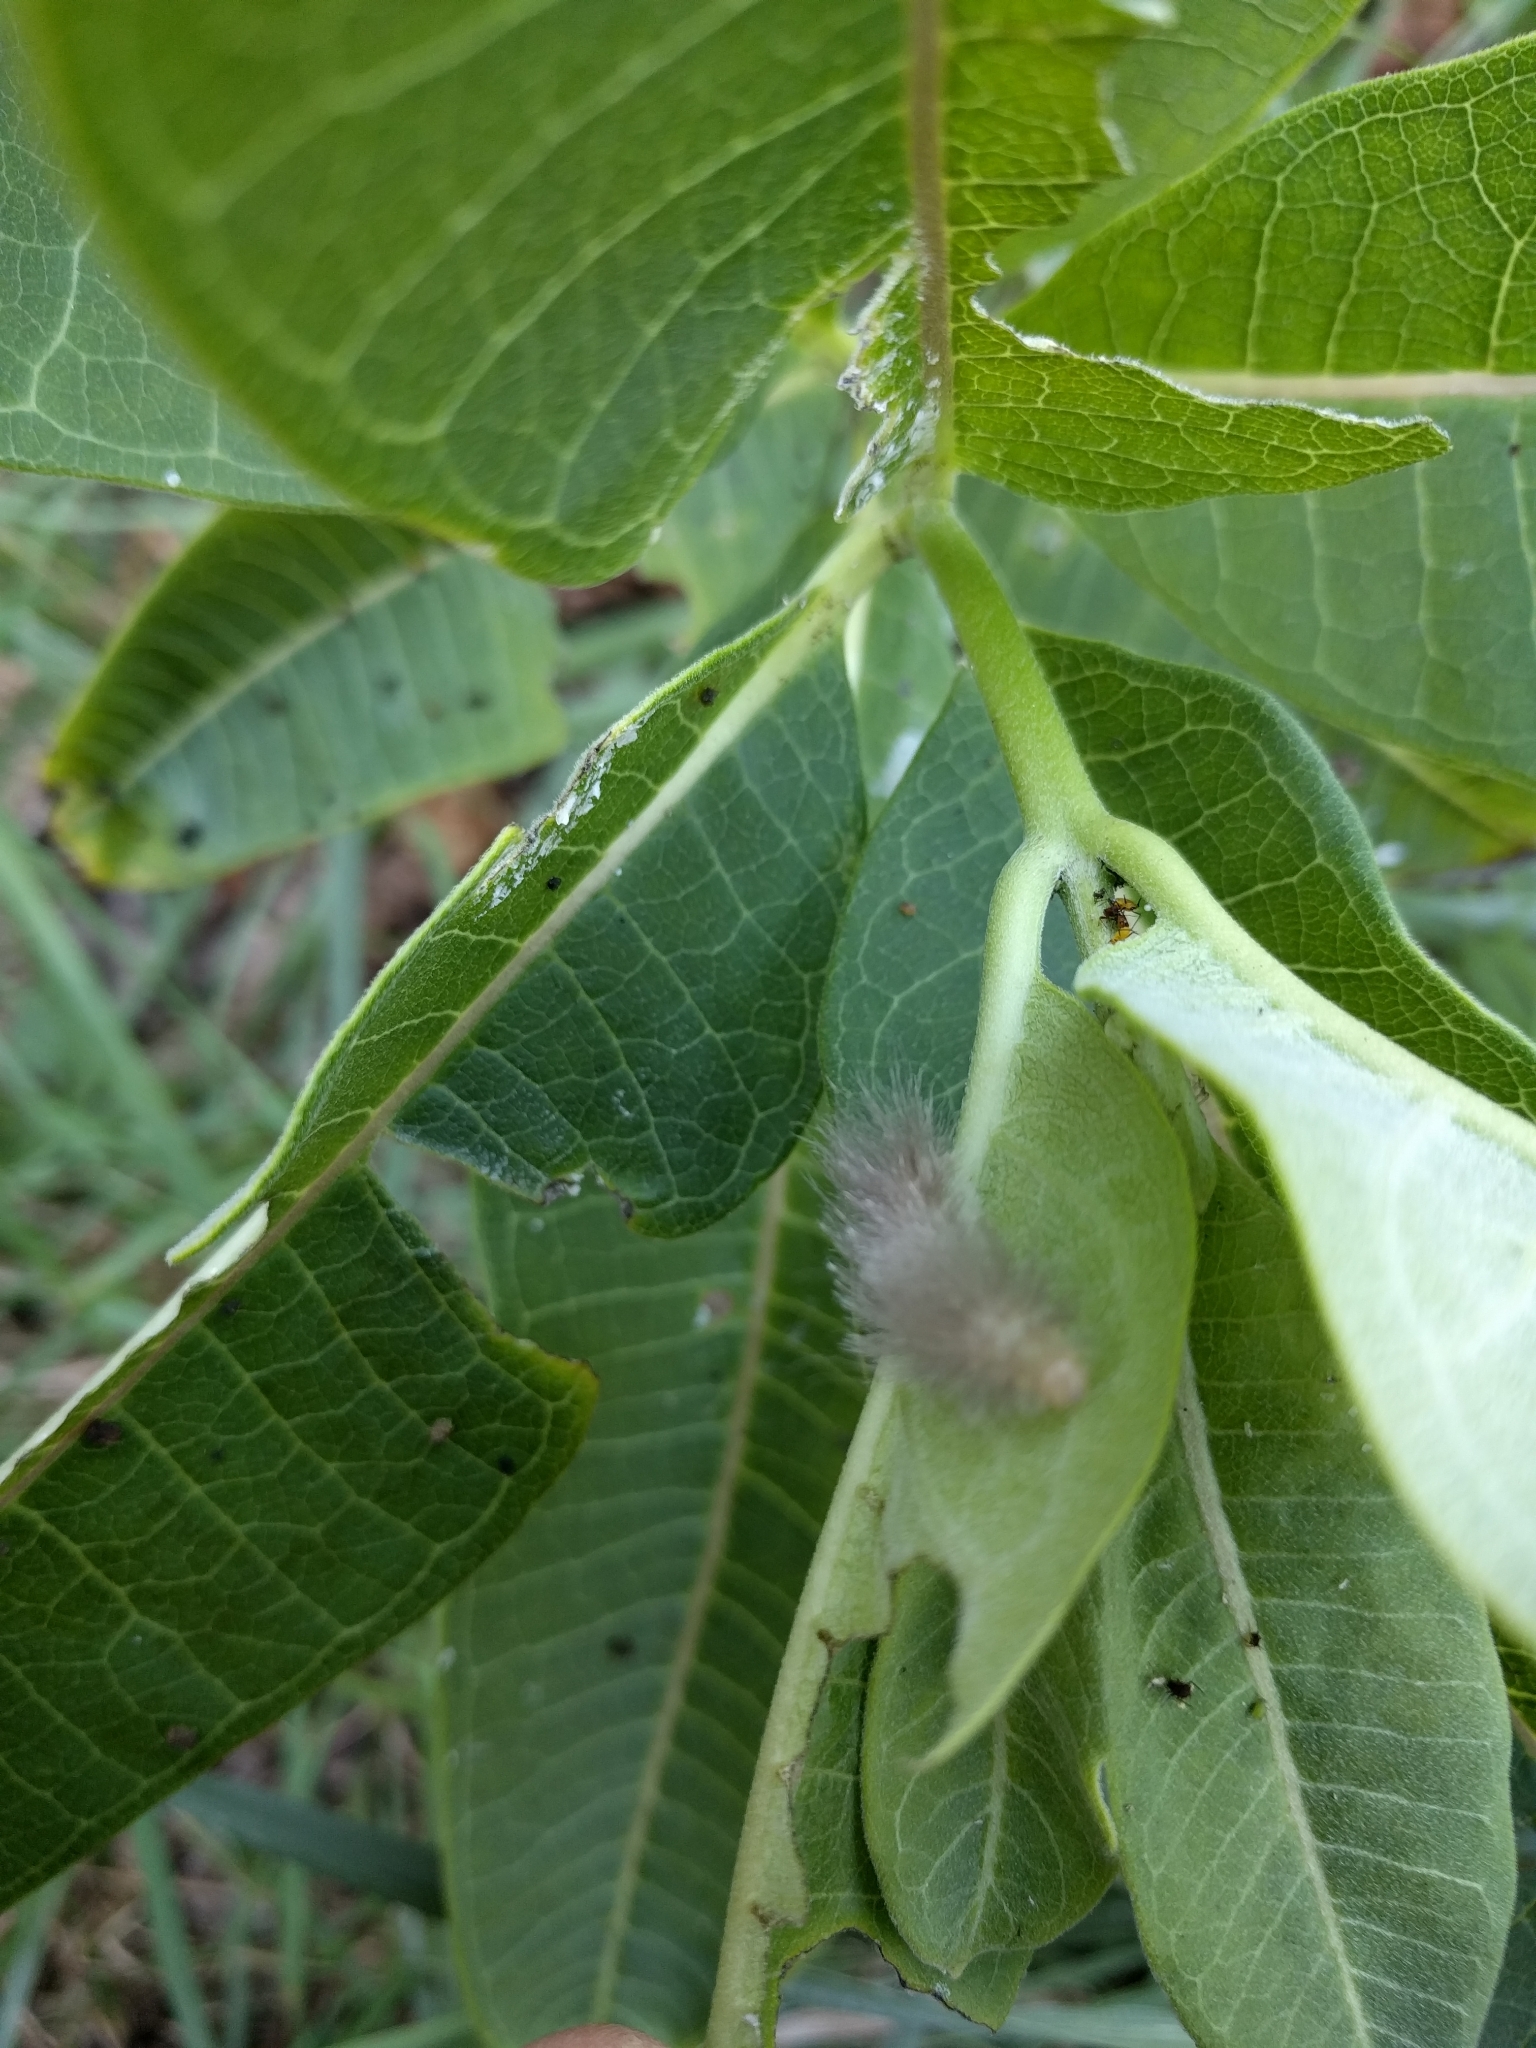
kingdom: Animalia
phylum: Arthropoda
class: Insecta
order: Lepidoptera
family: Erebidae
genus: Cycnia
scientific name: Cycnia tenera
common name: Delicate cycnia moth
